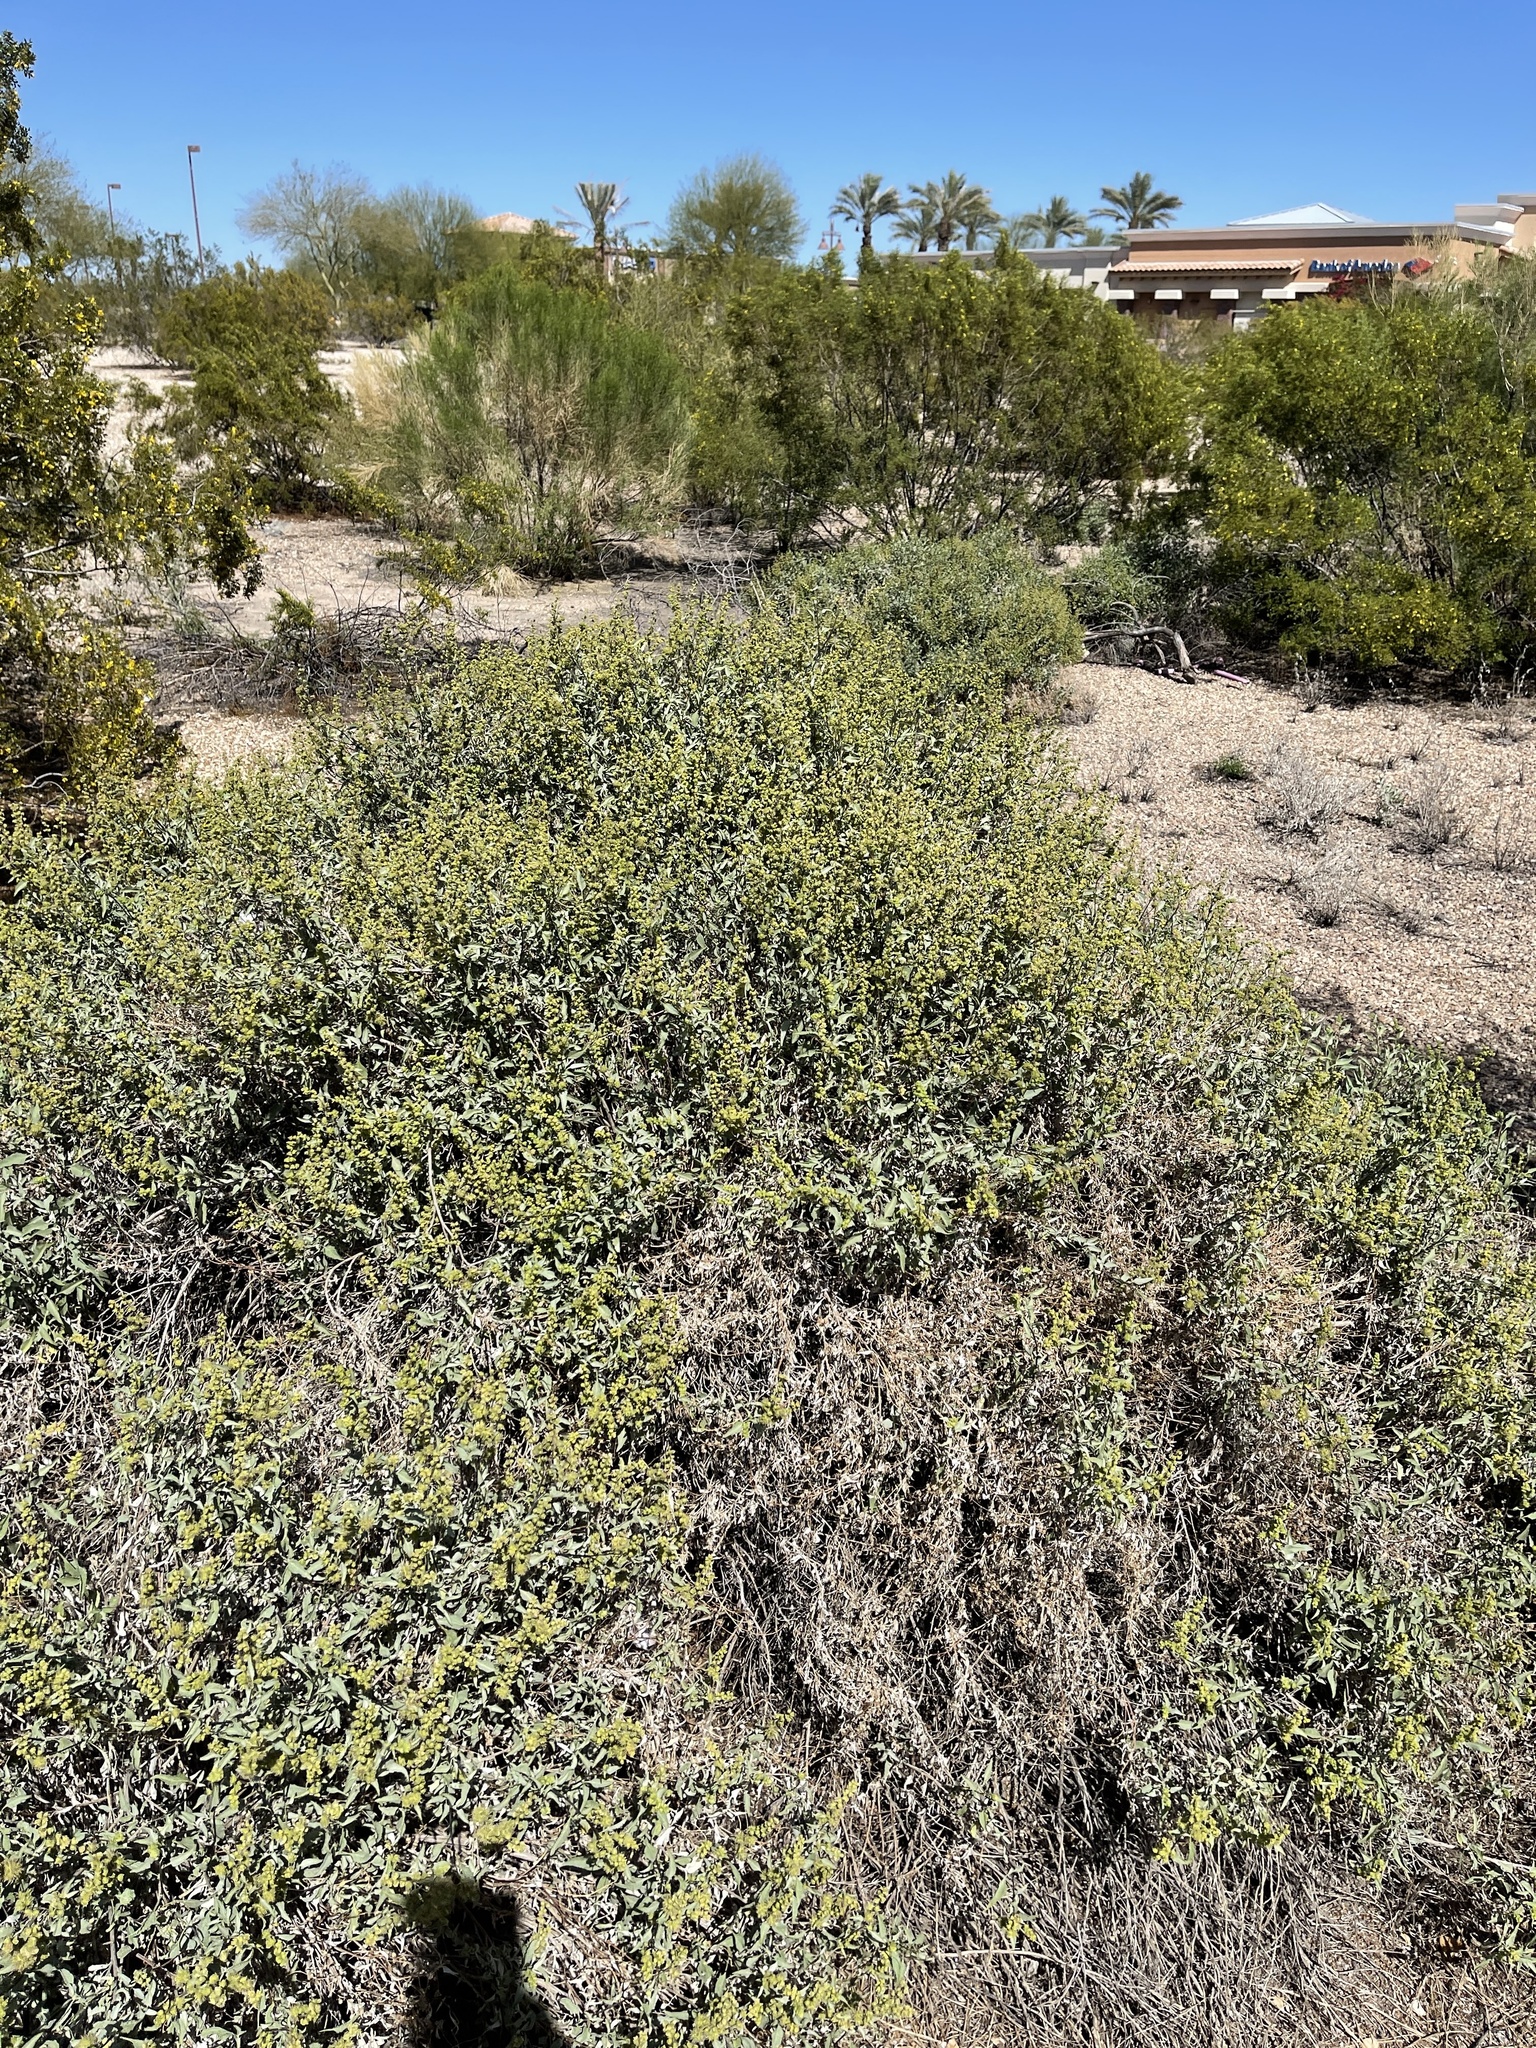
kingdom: Plantae
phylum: Tracheophyta
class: Magnoliopsida
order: Asterales
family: Asteraceae
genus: Ambrosia
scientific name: Ambrosia deltoidea
